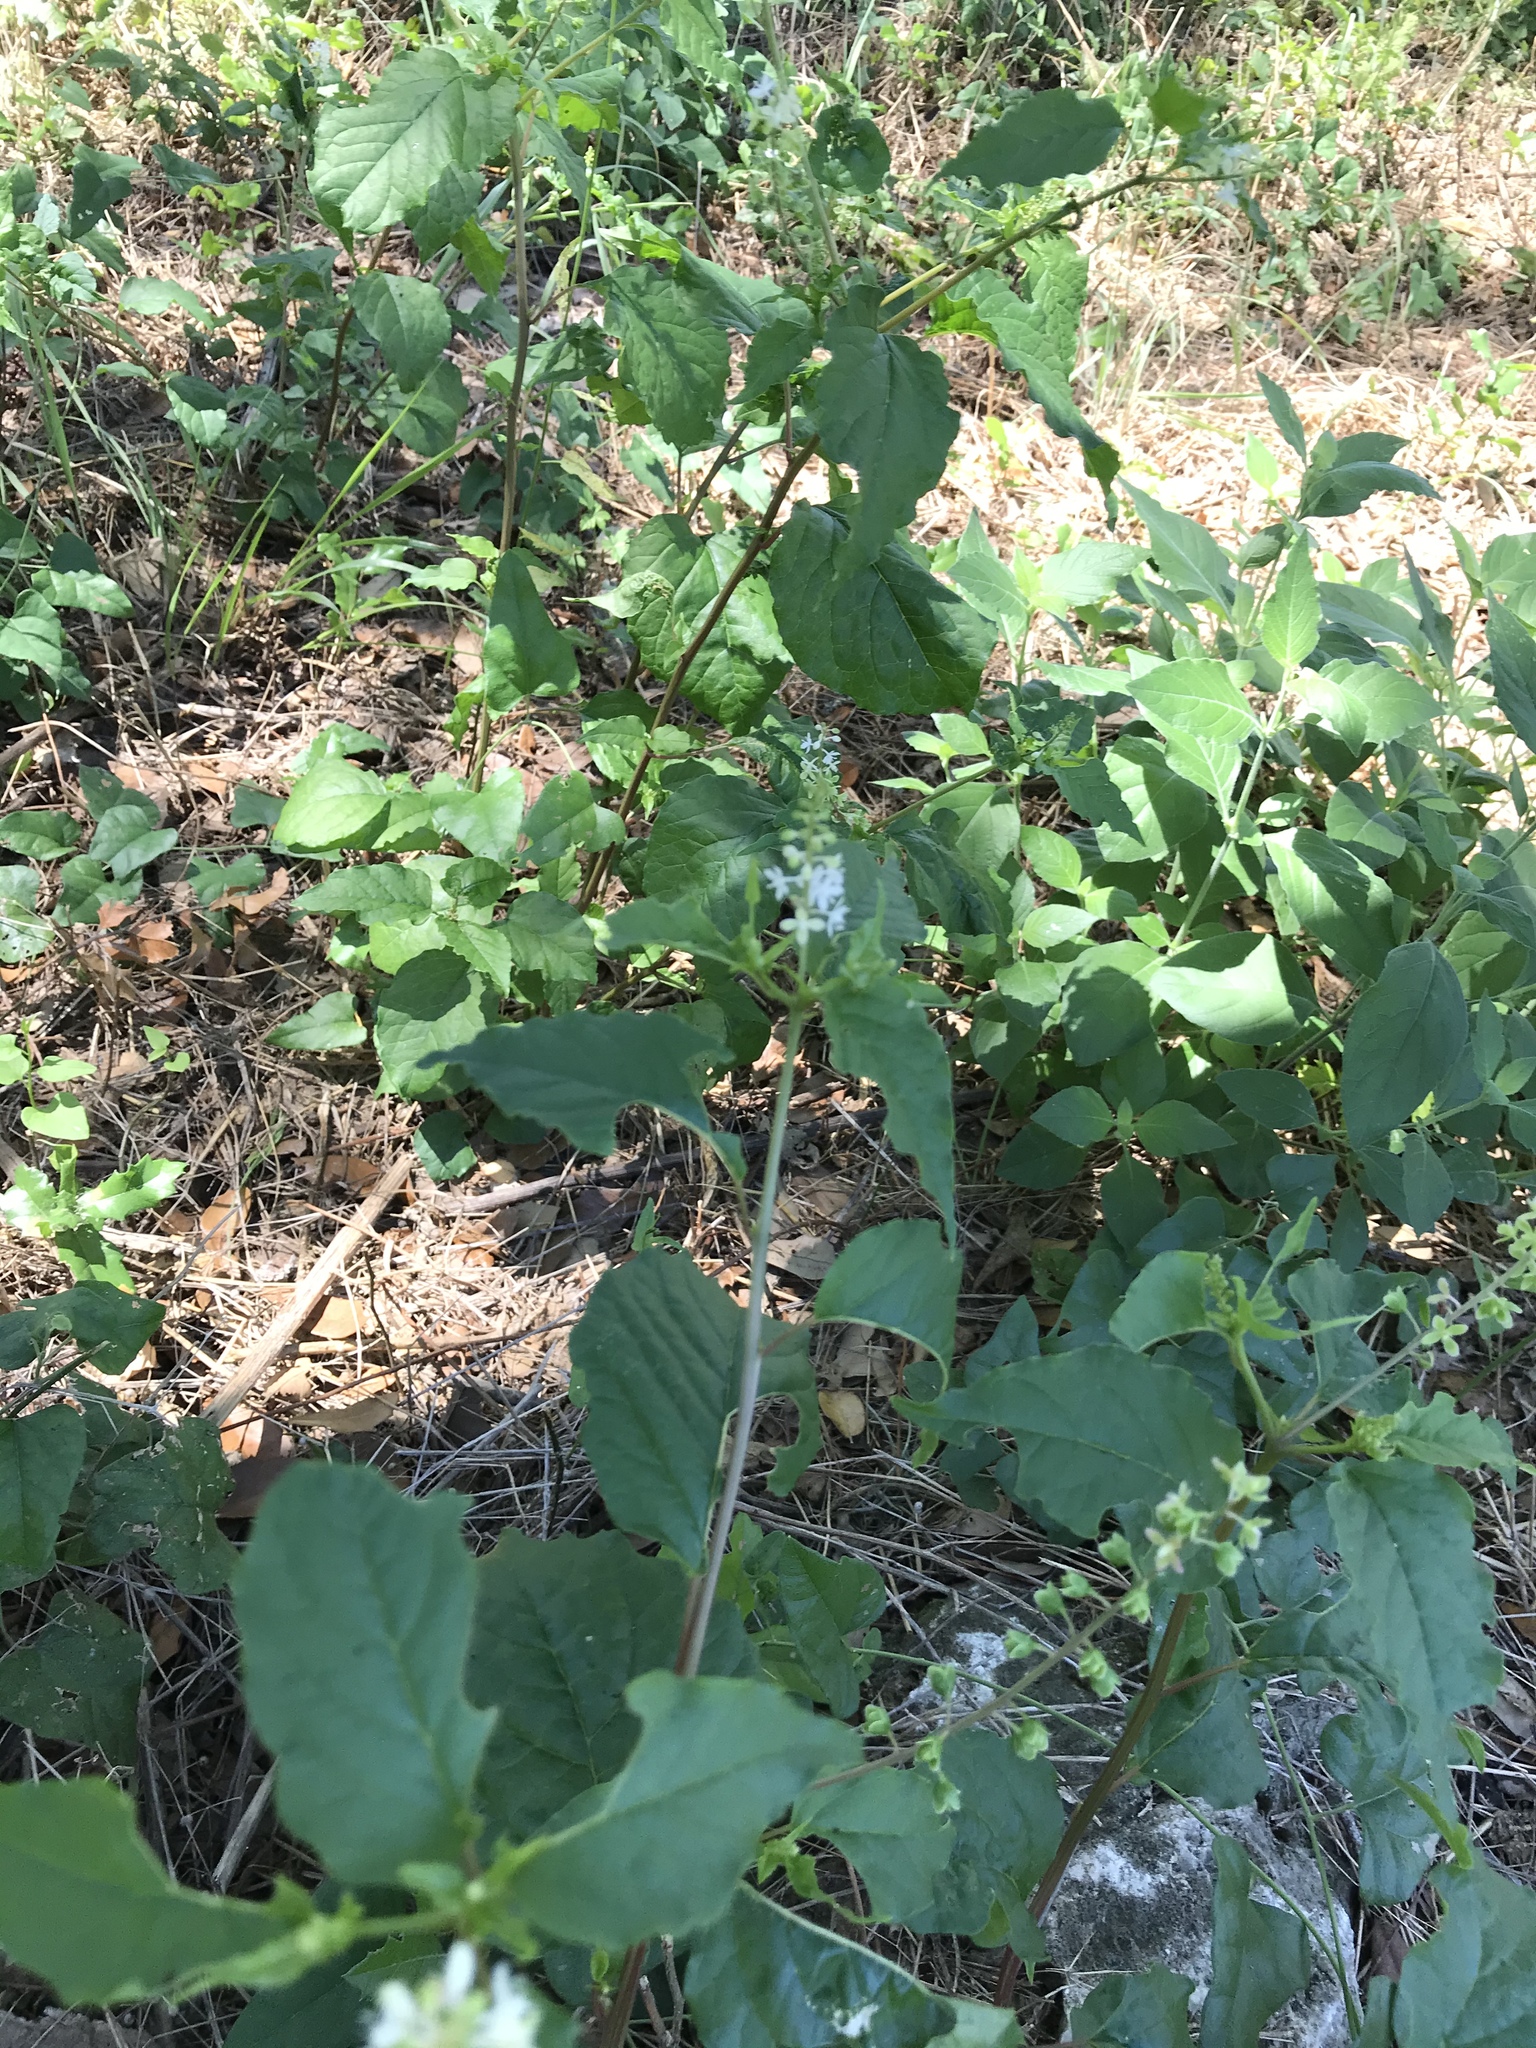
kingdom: Plantae
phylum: Tracheophyta
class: Magnoliopsida
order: Caryophyllales
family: Phytolaccaceae
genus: Rivina
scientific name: Rivina humilis
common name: Rougeplant
